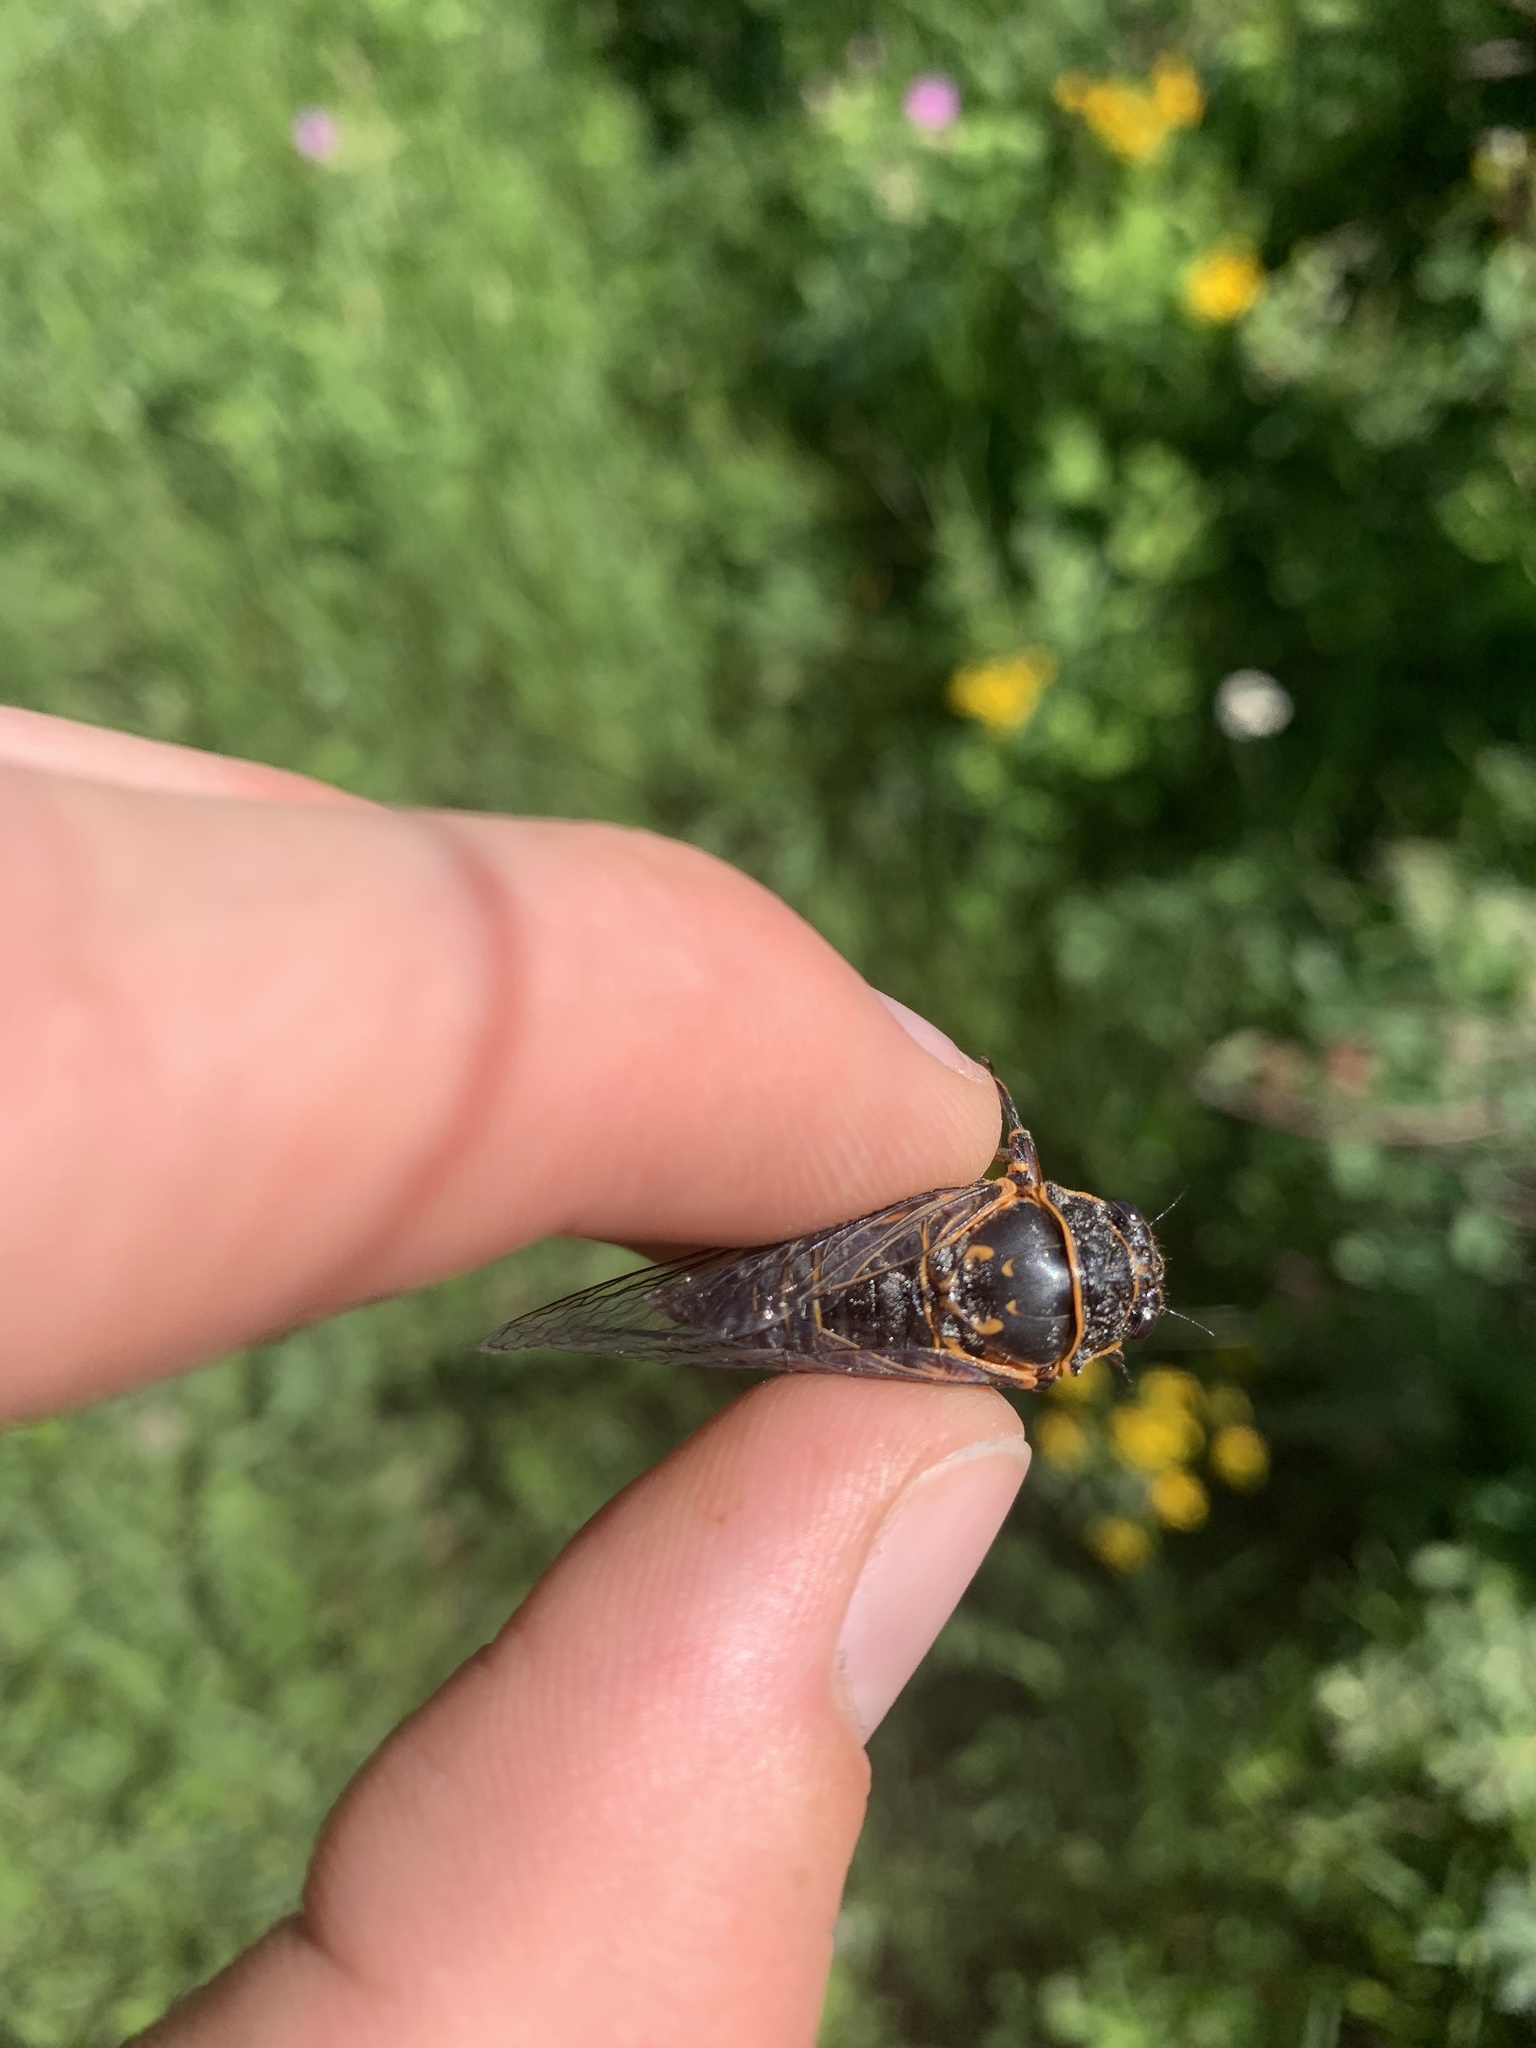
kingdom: Animalia
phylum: Arthropoda
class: Insecta
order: Hemiptera
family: Cicadidae
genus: Okanagana
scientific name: Okanagana occidentalis
